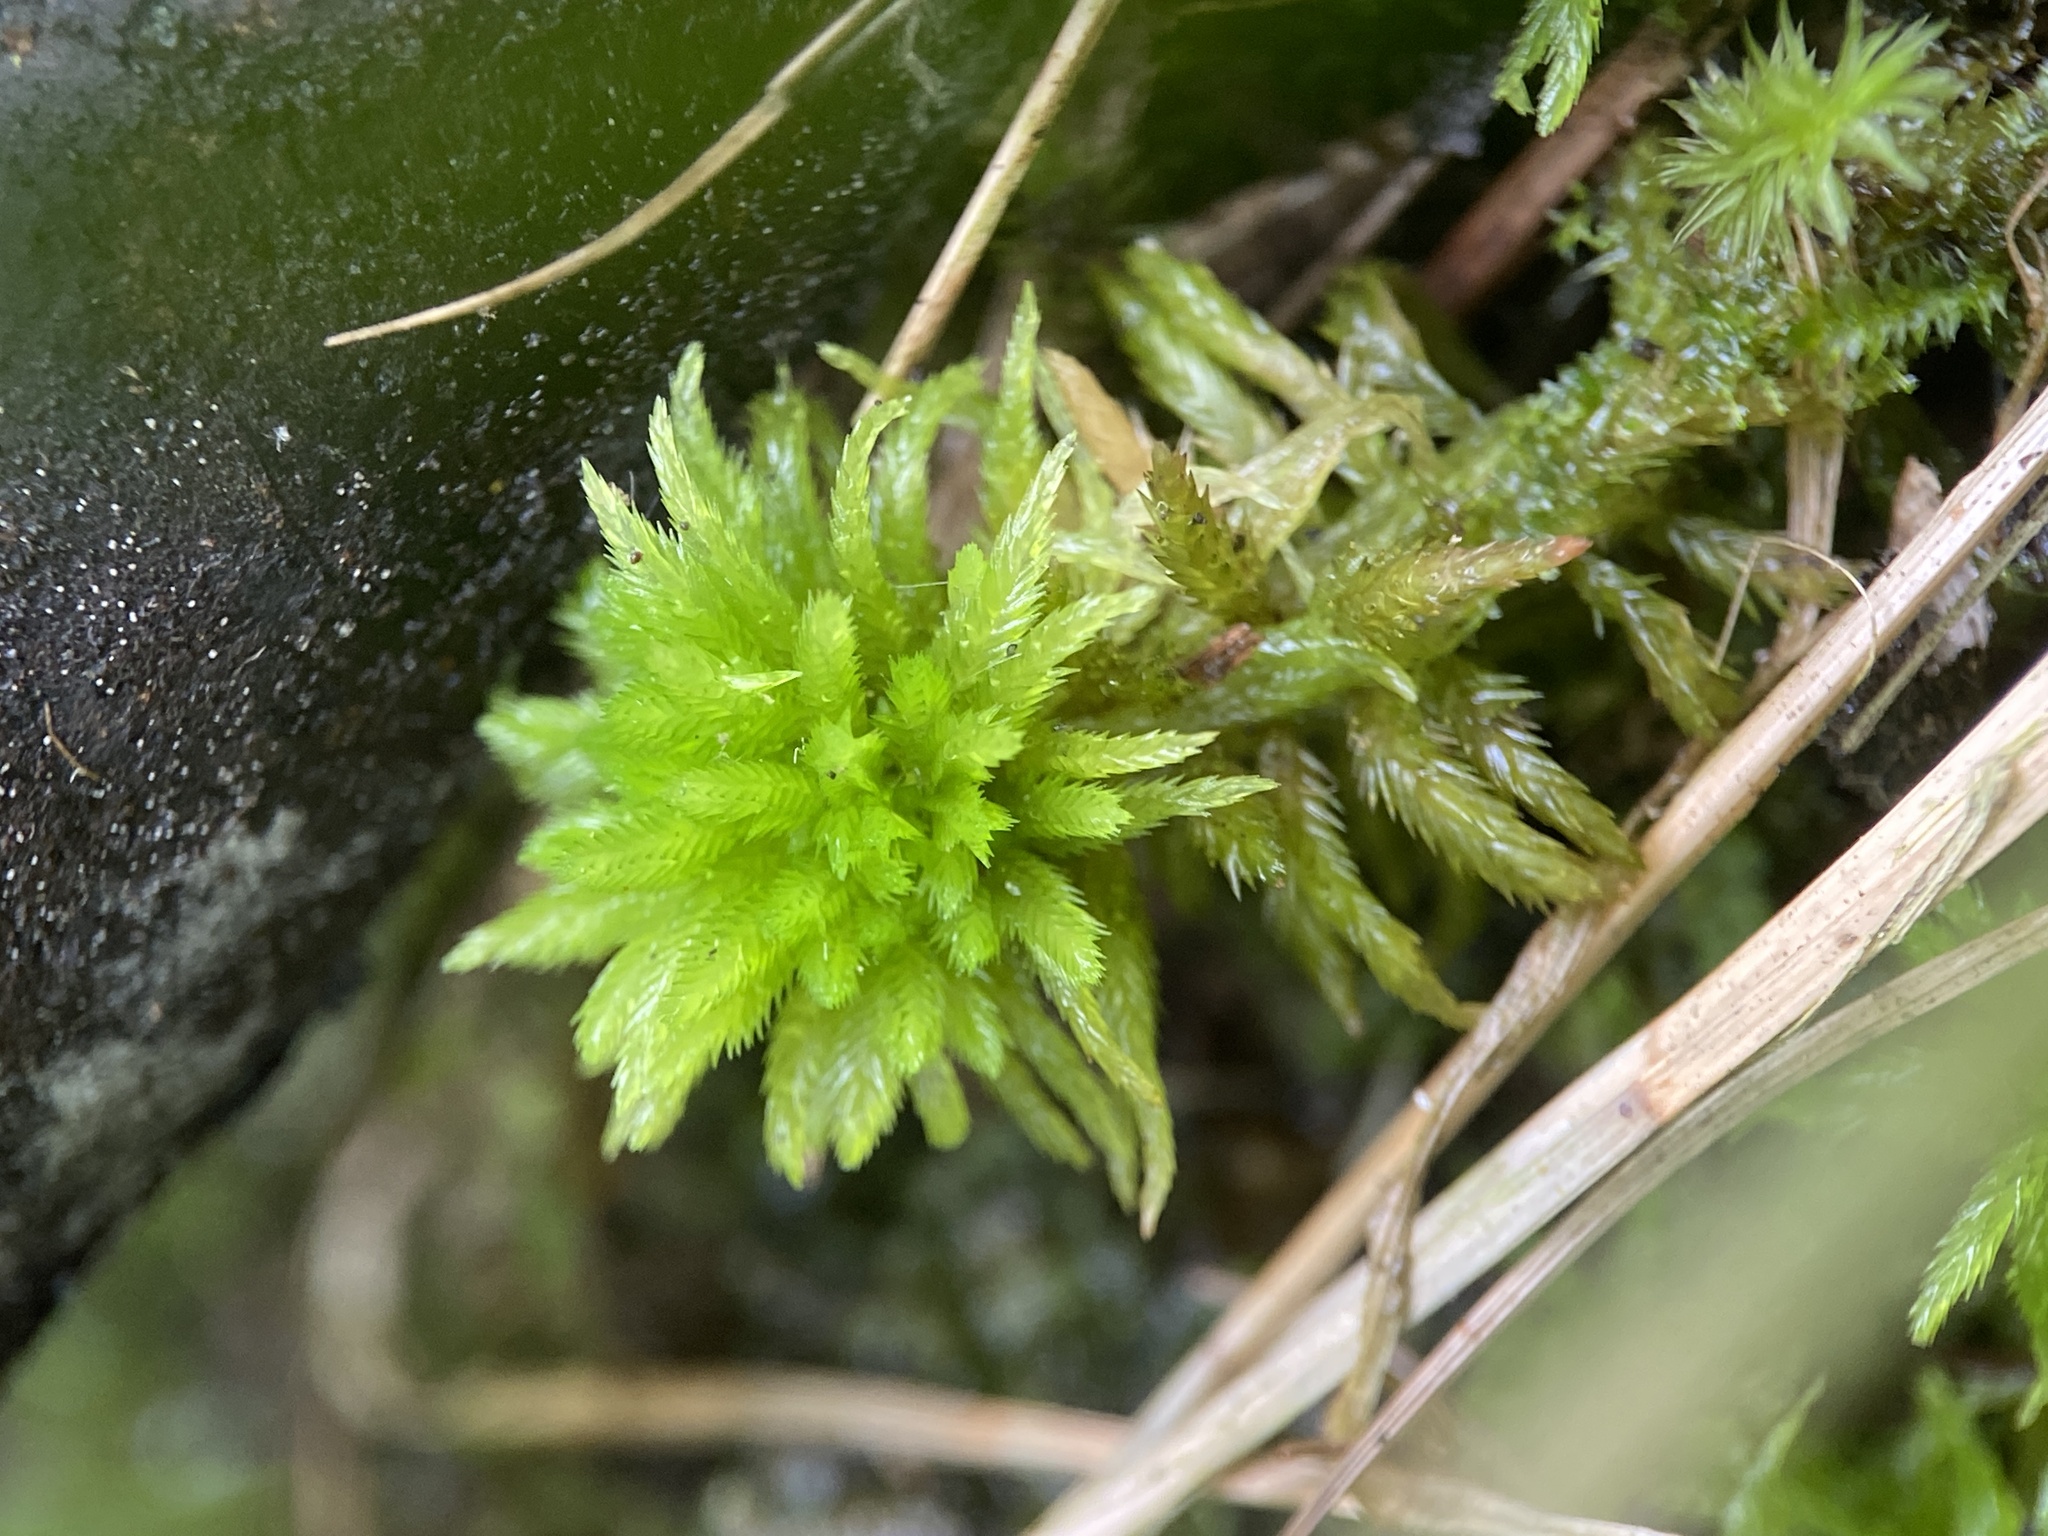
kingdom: Plantae
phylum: Bryophyta
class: Sphagnopsida
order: Sphagnales
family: Sphagnaceae
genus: Sphagnum
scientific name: Sphagnum pulchrum
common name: Beautiful peat moss
